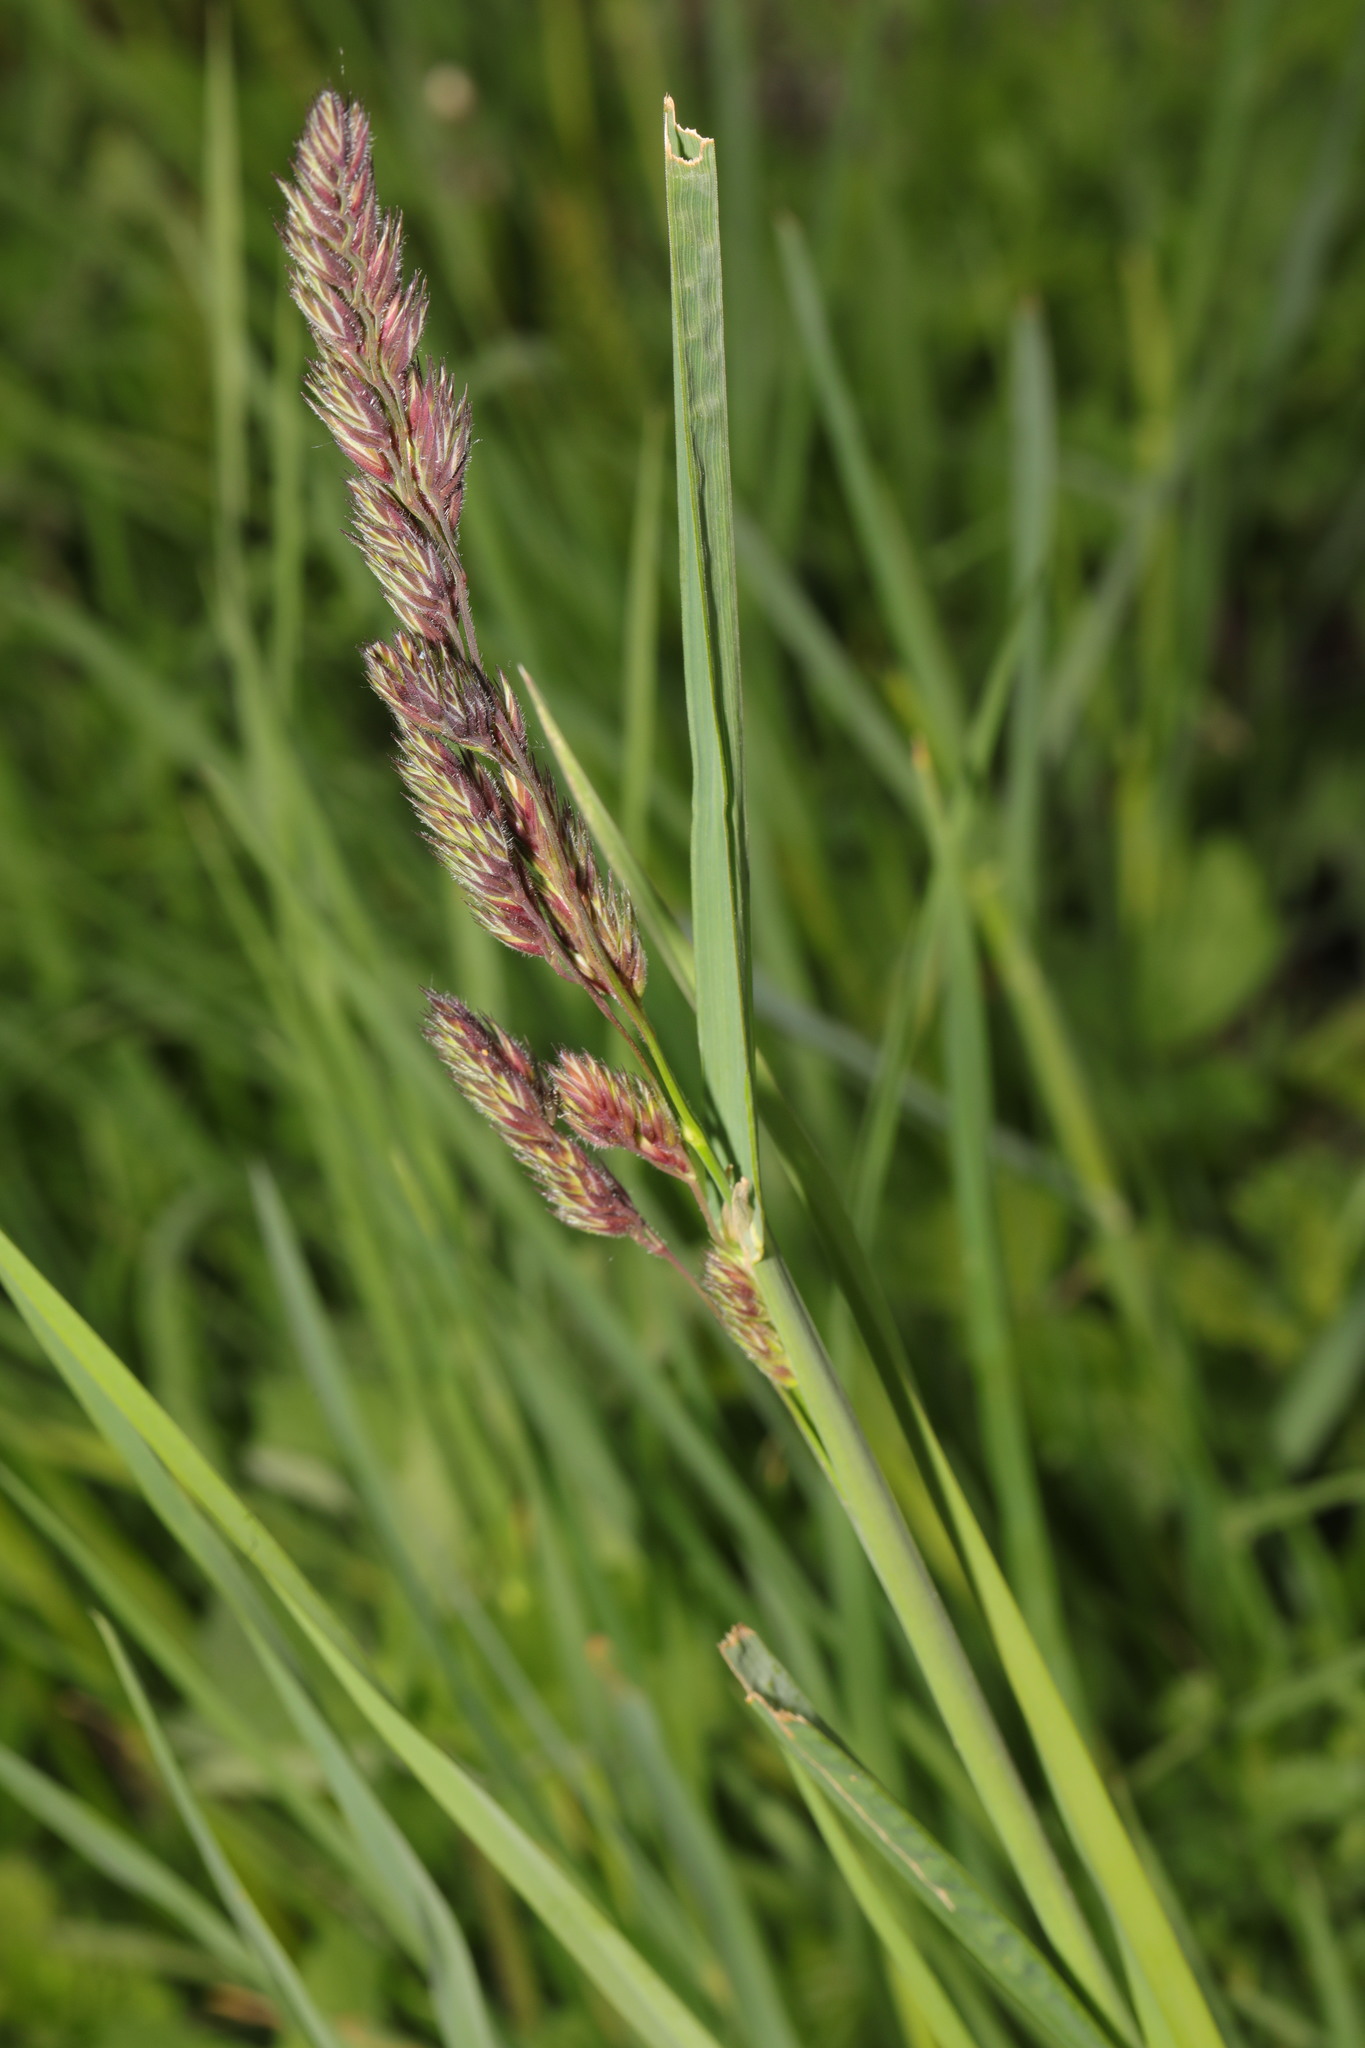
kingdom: Plantae
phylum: Tracheophyta
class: Liliopsida
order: Poales
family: Poaceae
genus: Dactylis
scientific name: Dactylis glomerata
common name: Orchardgrass
